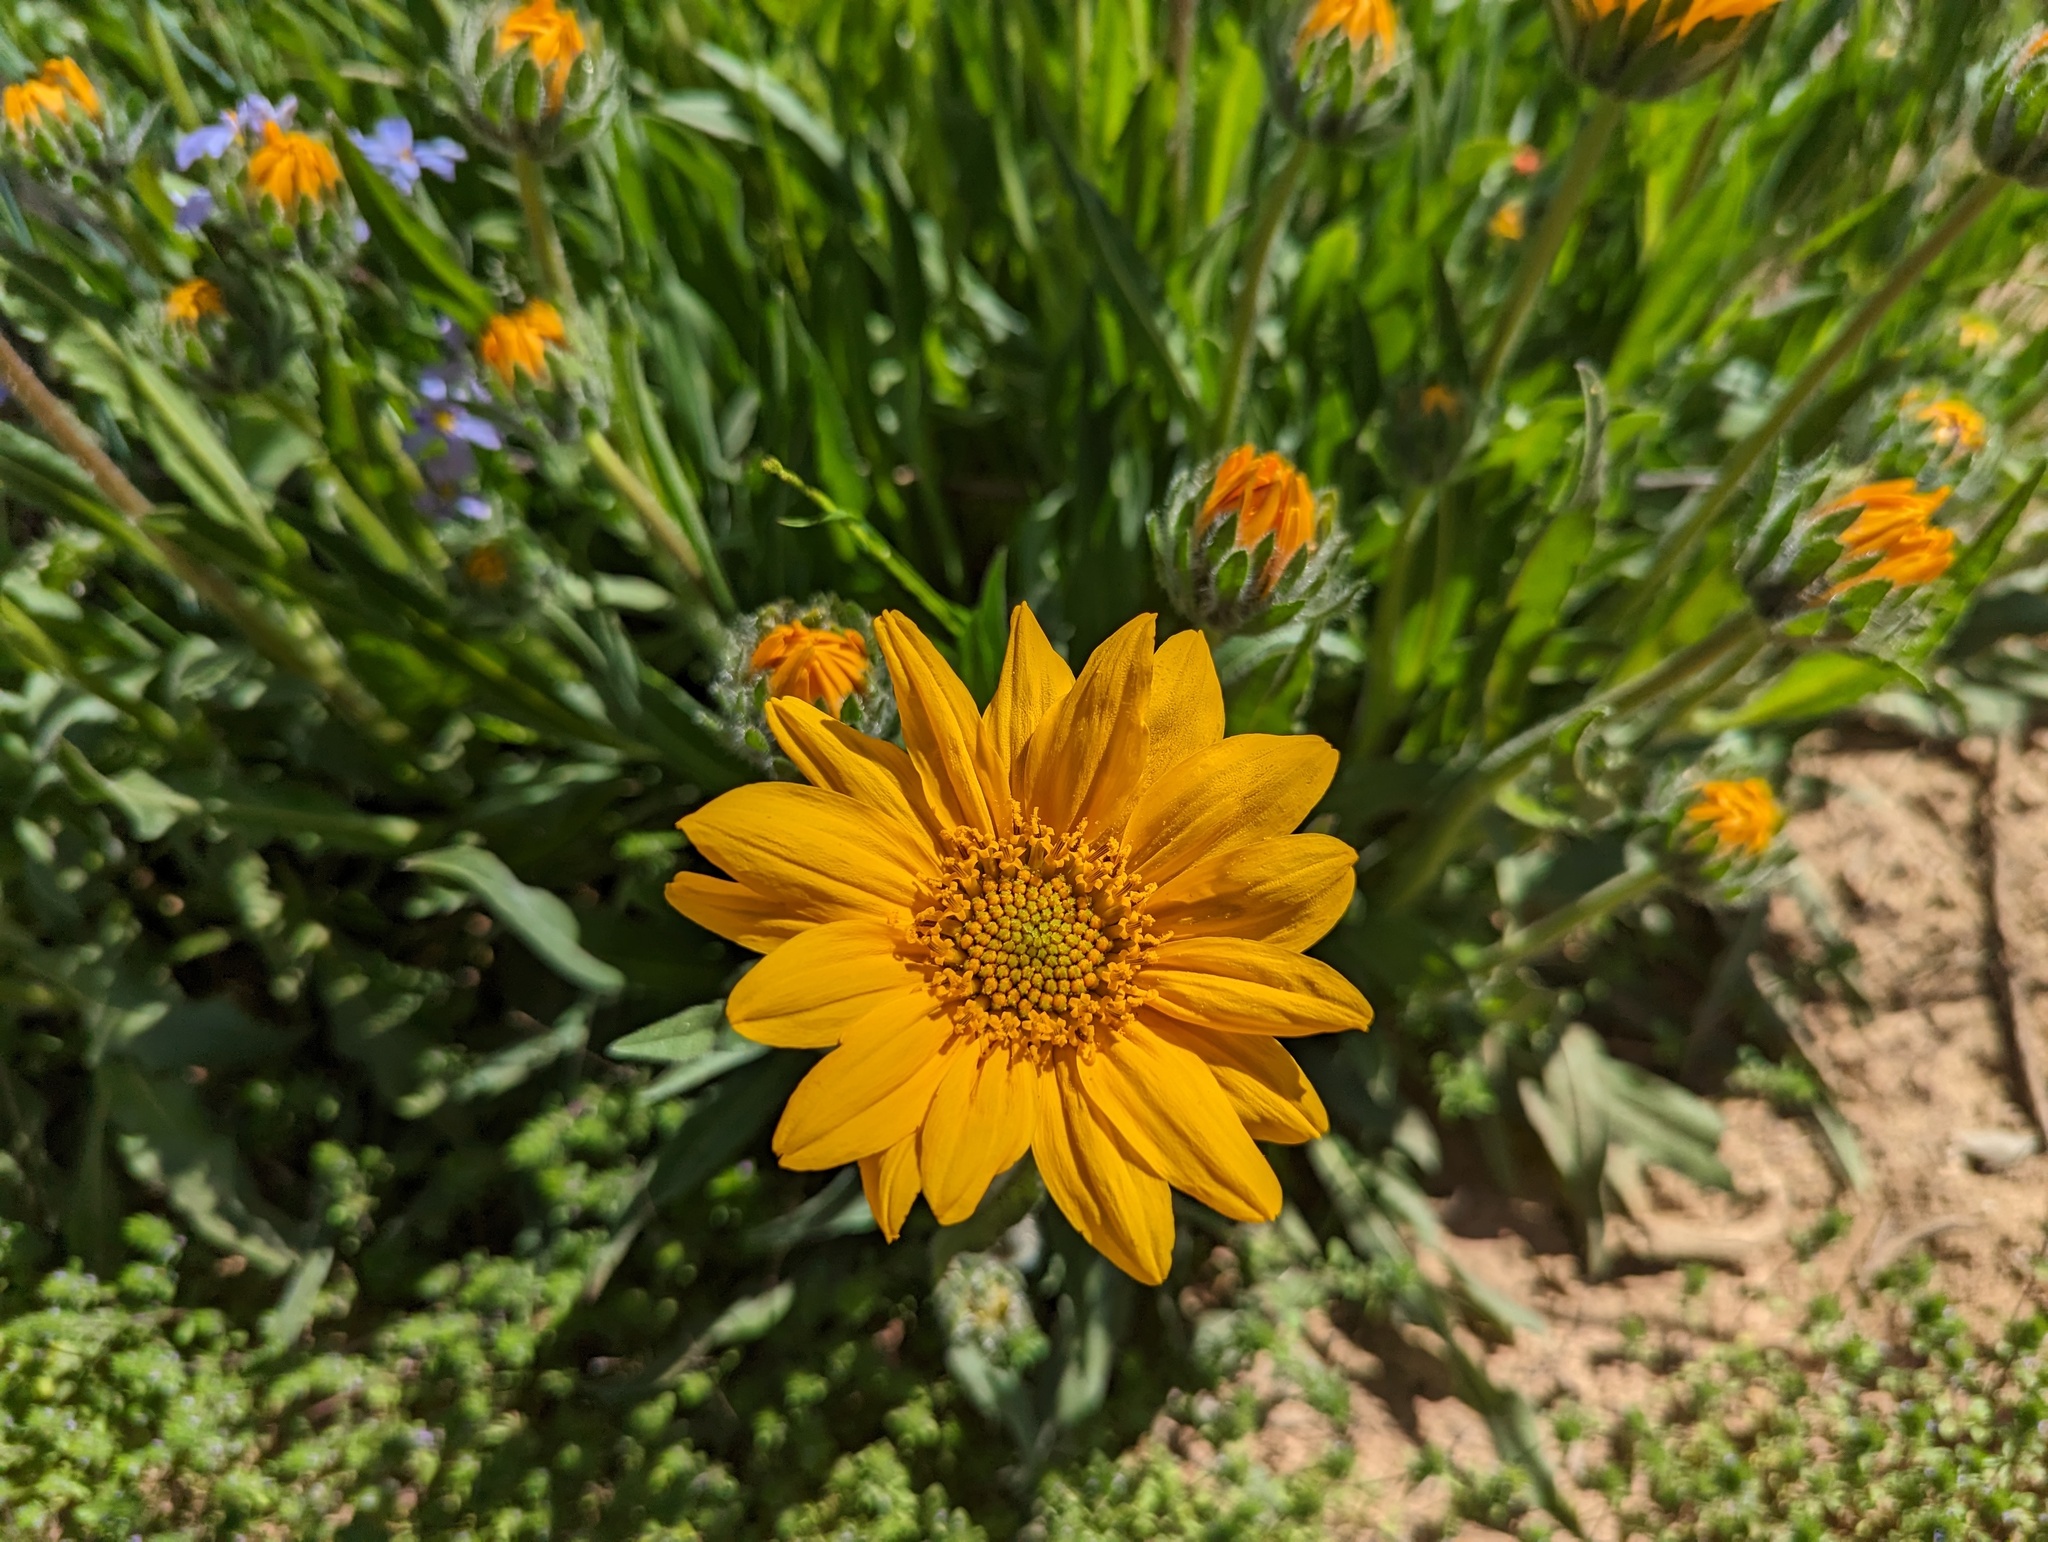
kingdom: Plantae
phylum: Tracheophyta
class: Magnoliopsida
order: Asterales
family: Asteraceae
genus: Wyethia
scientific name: Wyethia angustifolia
